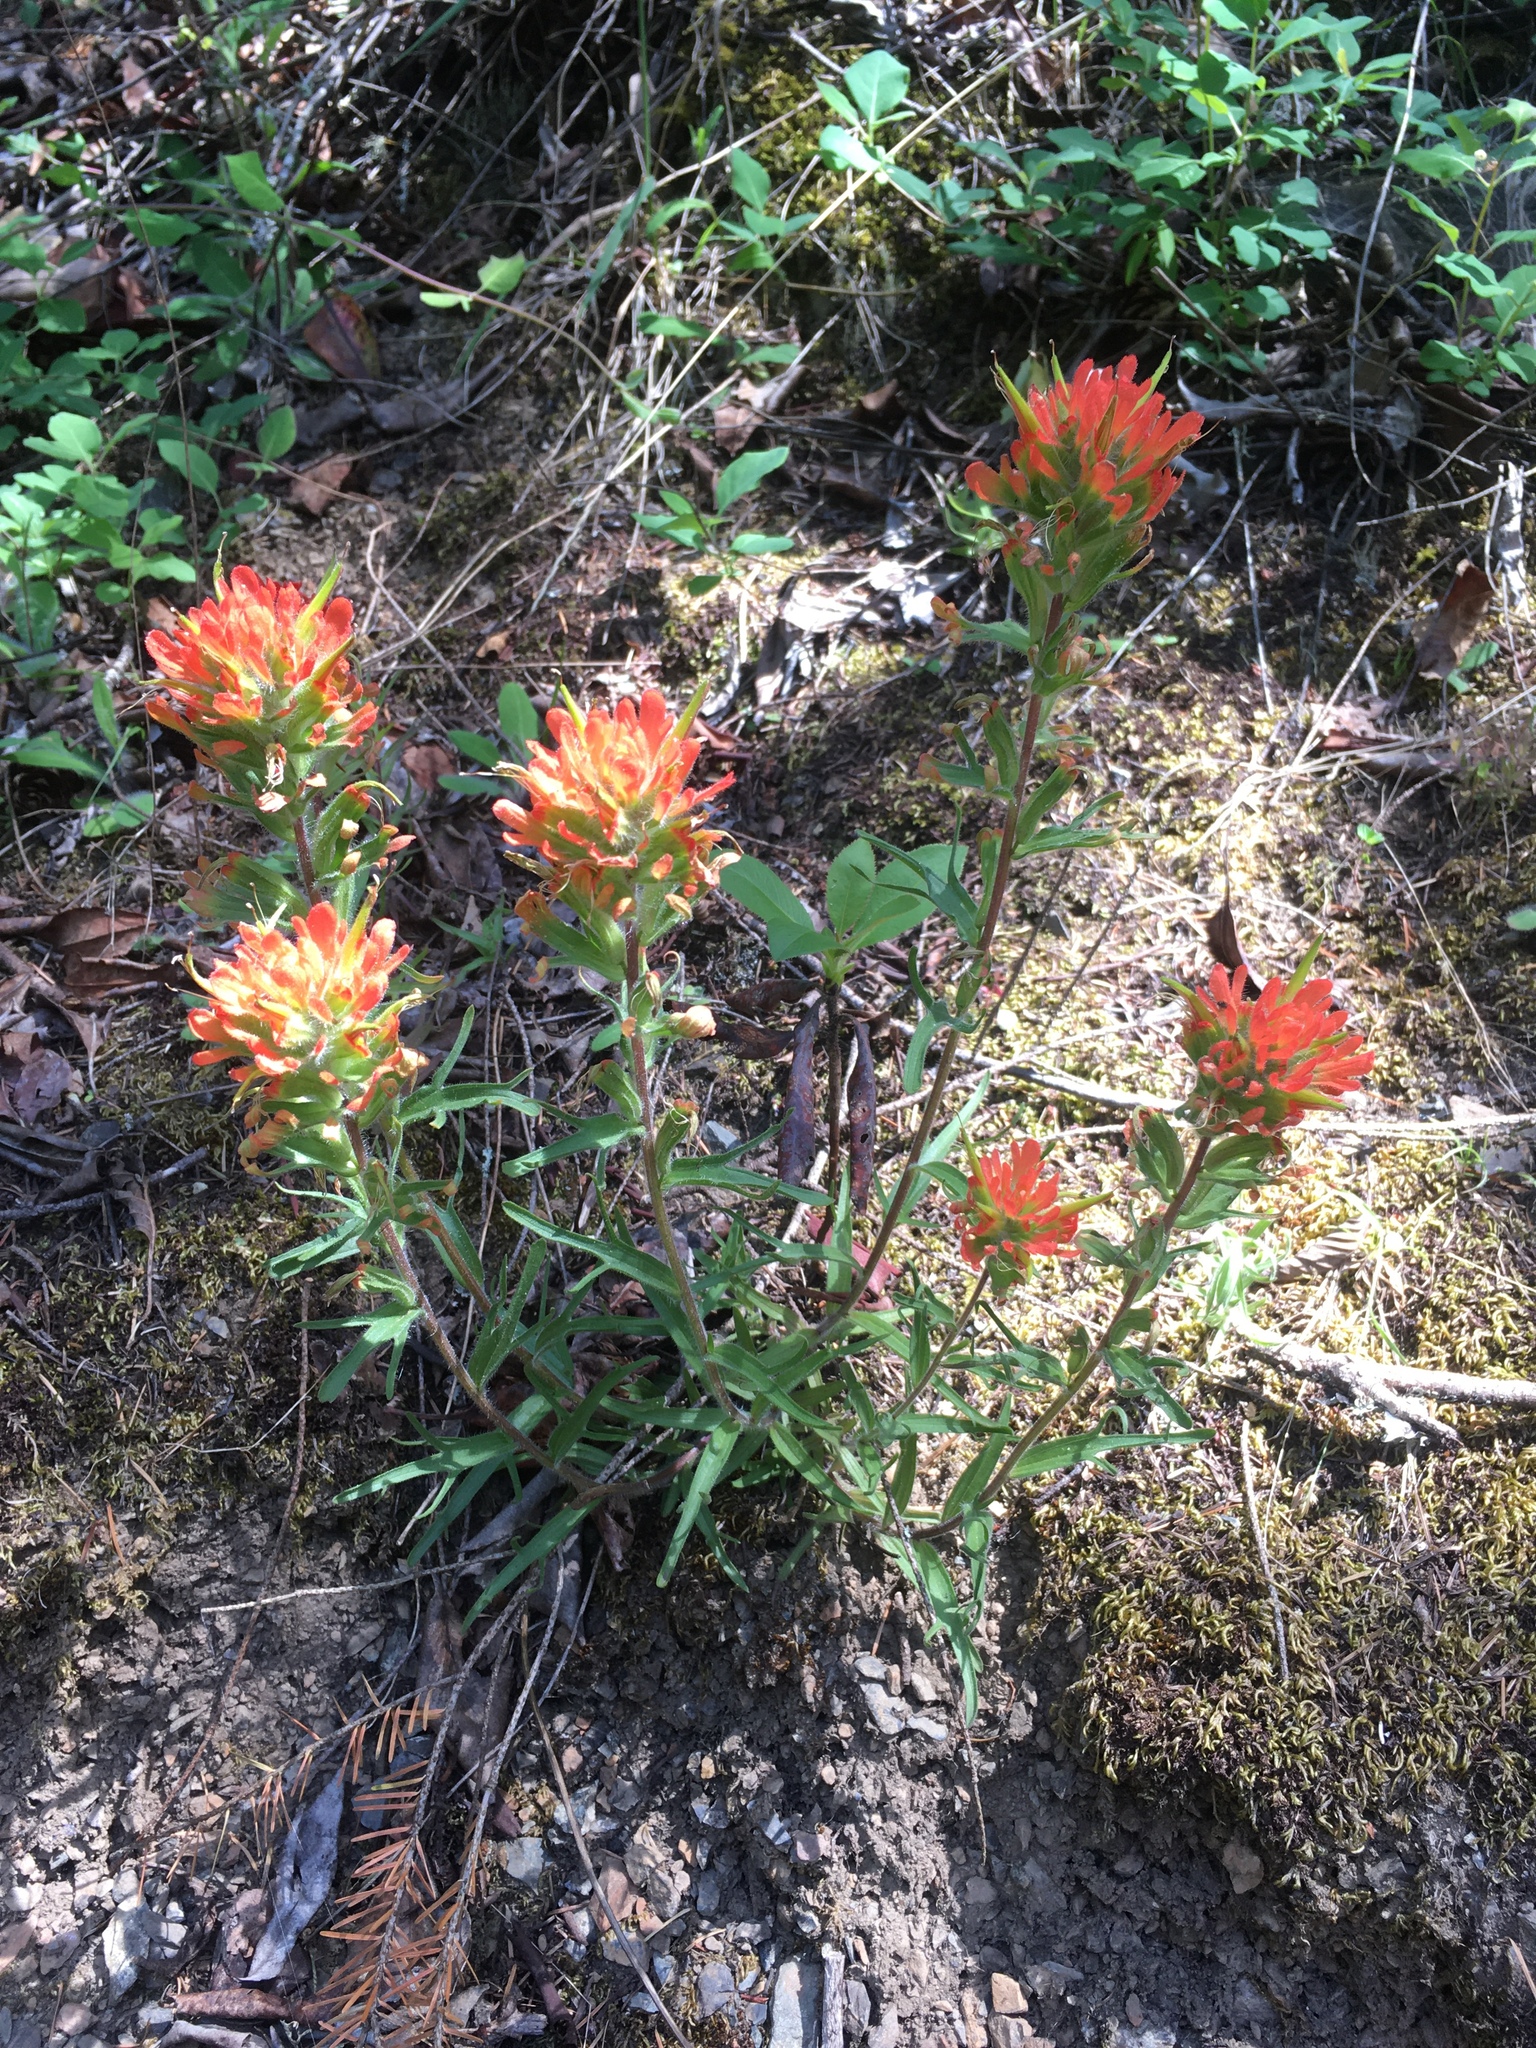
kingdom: Plantae
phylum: Tracheophyta
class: Magnoliopsida
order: Lamiales
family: Orobanchaceae
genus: Castilleja
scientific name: Castilleja hispida
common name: Bristly paintbrush
